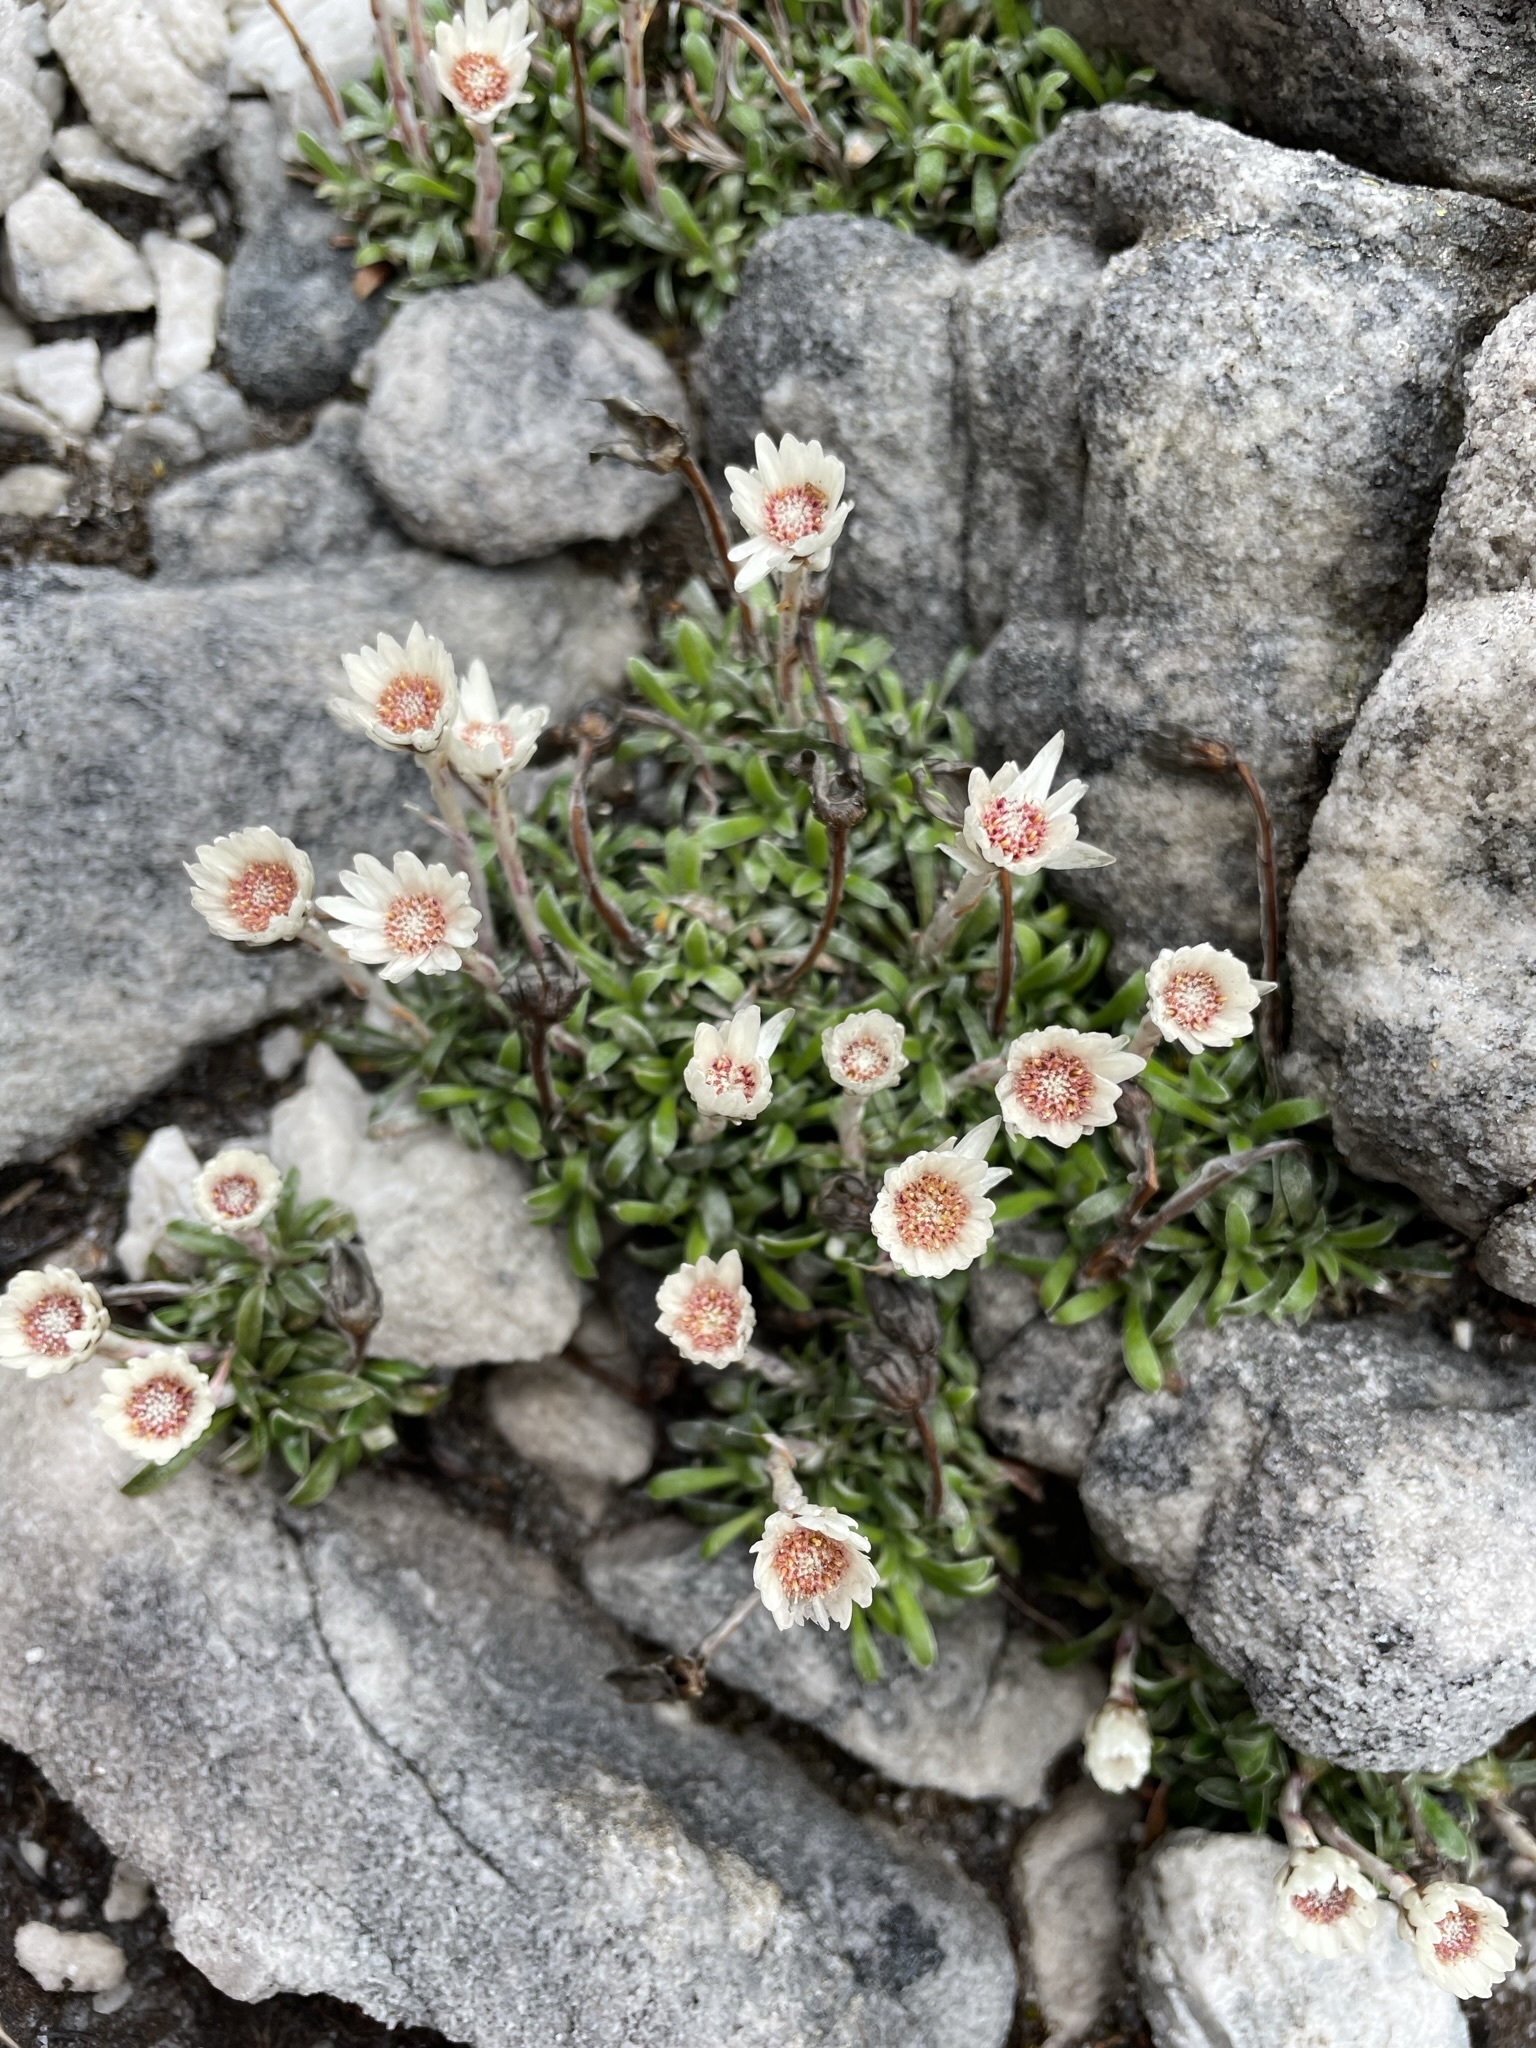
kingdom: Plantae
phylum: Tracheophyta
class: Magnoliopsida
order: Asterales
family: Asteraceae
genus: Helichrysum
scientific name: Helichrysum pumilum
